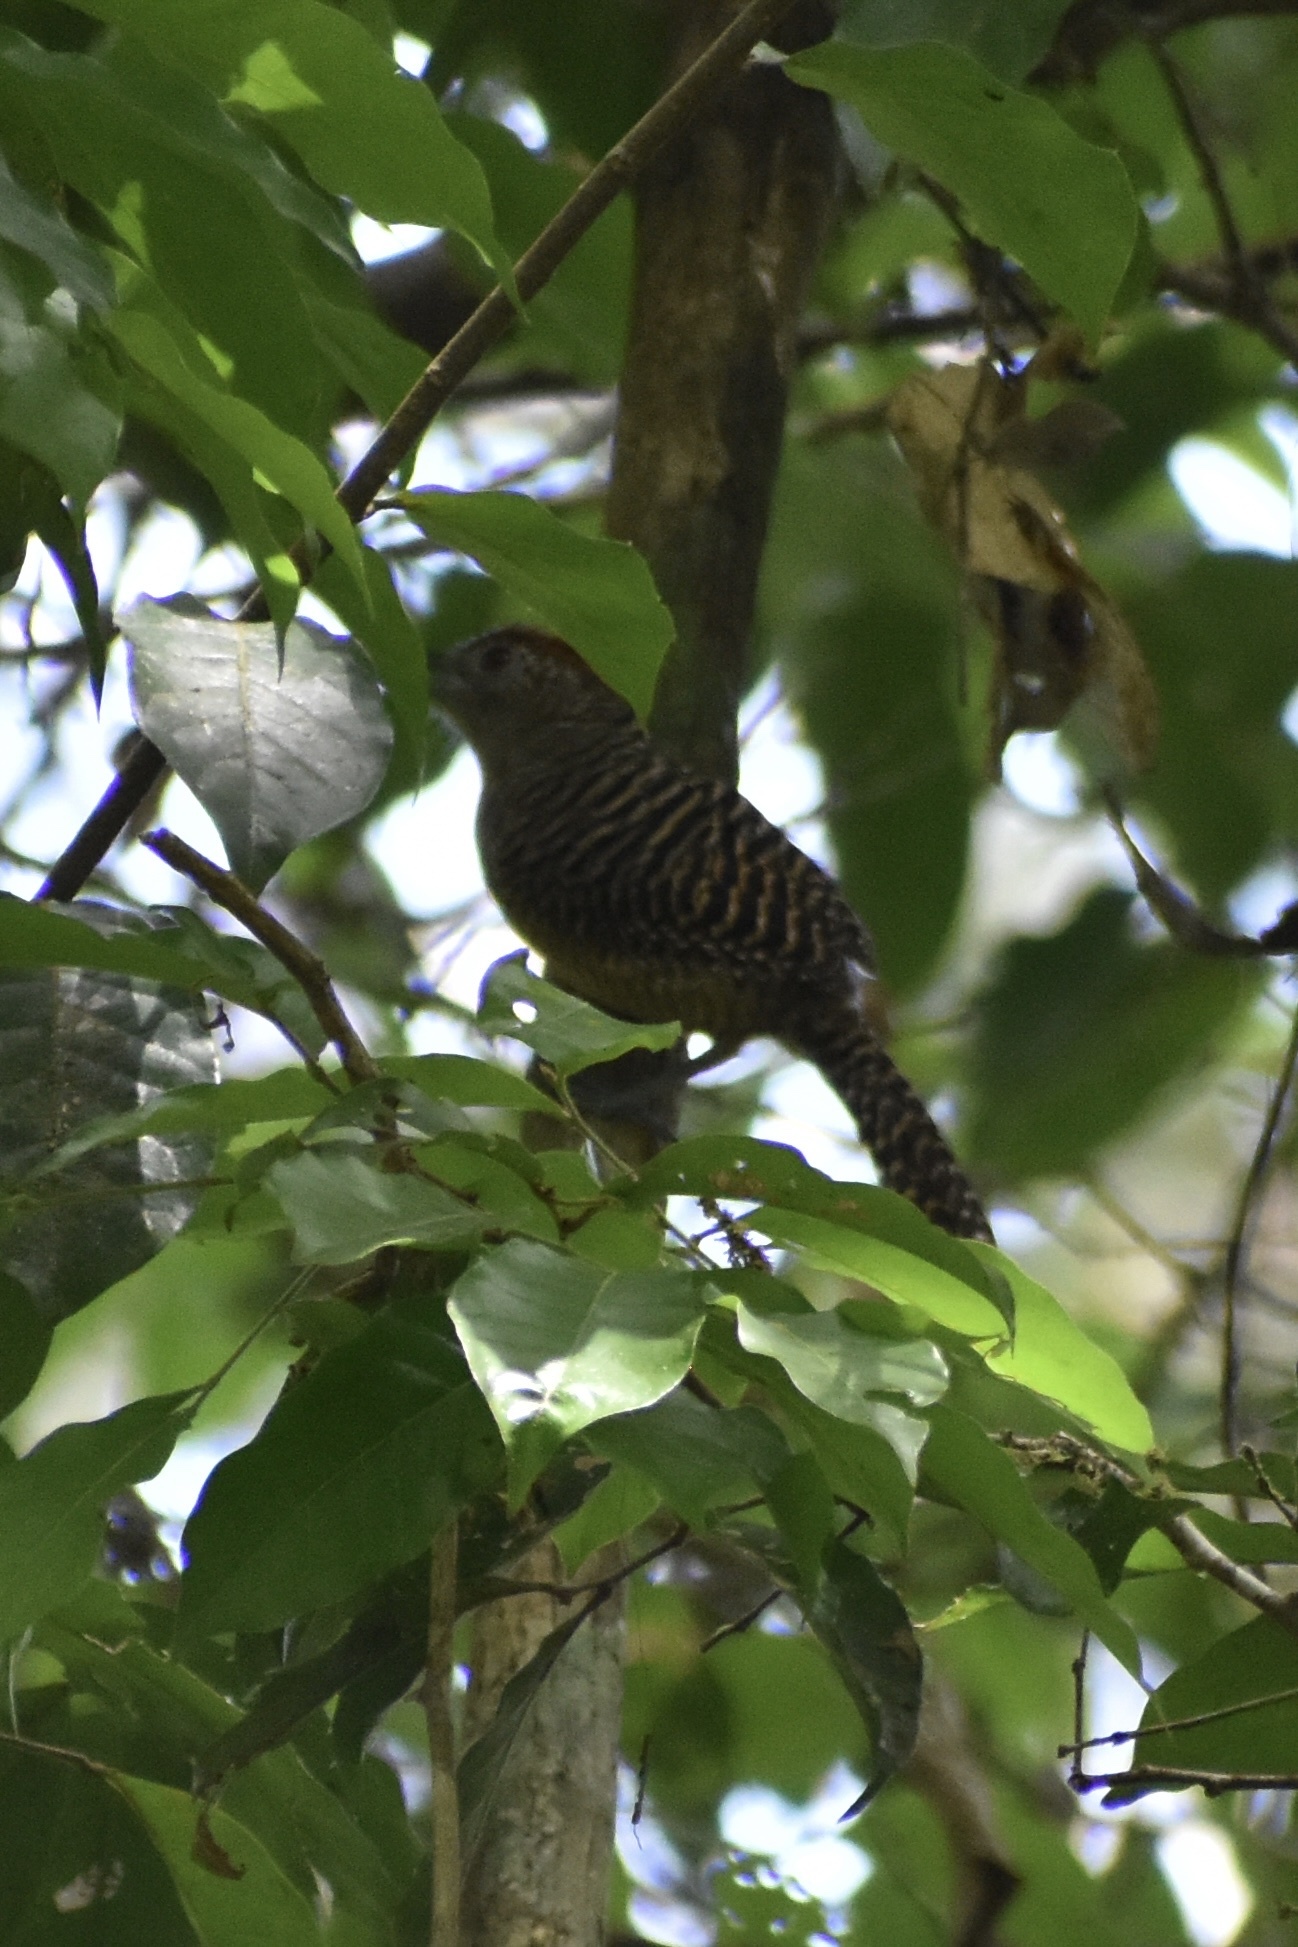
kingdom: Animalia
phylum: Chordata
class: Aves
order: Passeriformes
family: Thamnophilidae
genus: Cymbilaimus
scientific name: Cymbilaimus lineatus
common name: Fasciated antshrike
